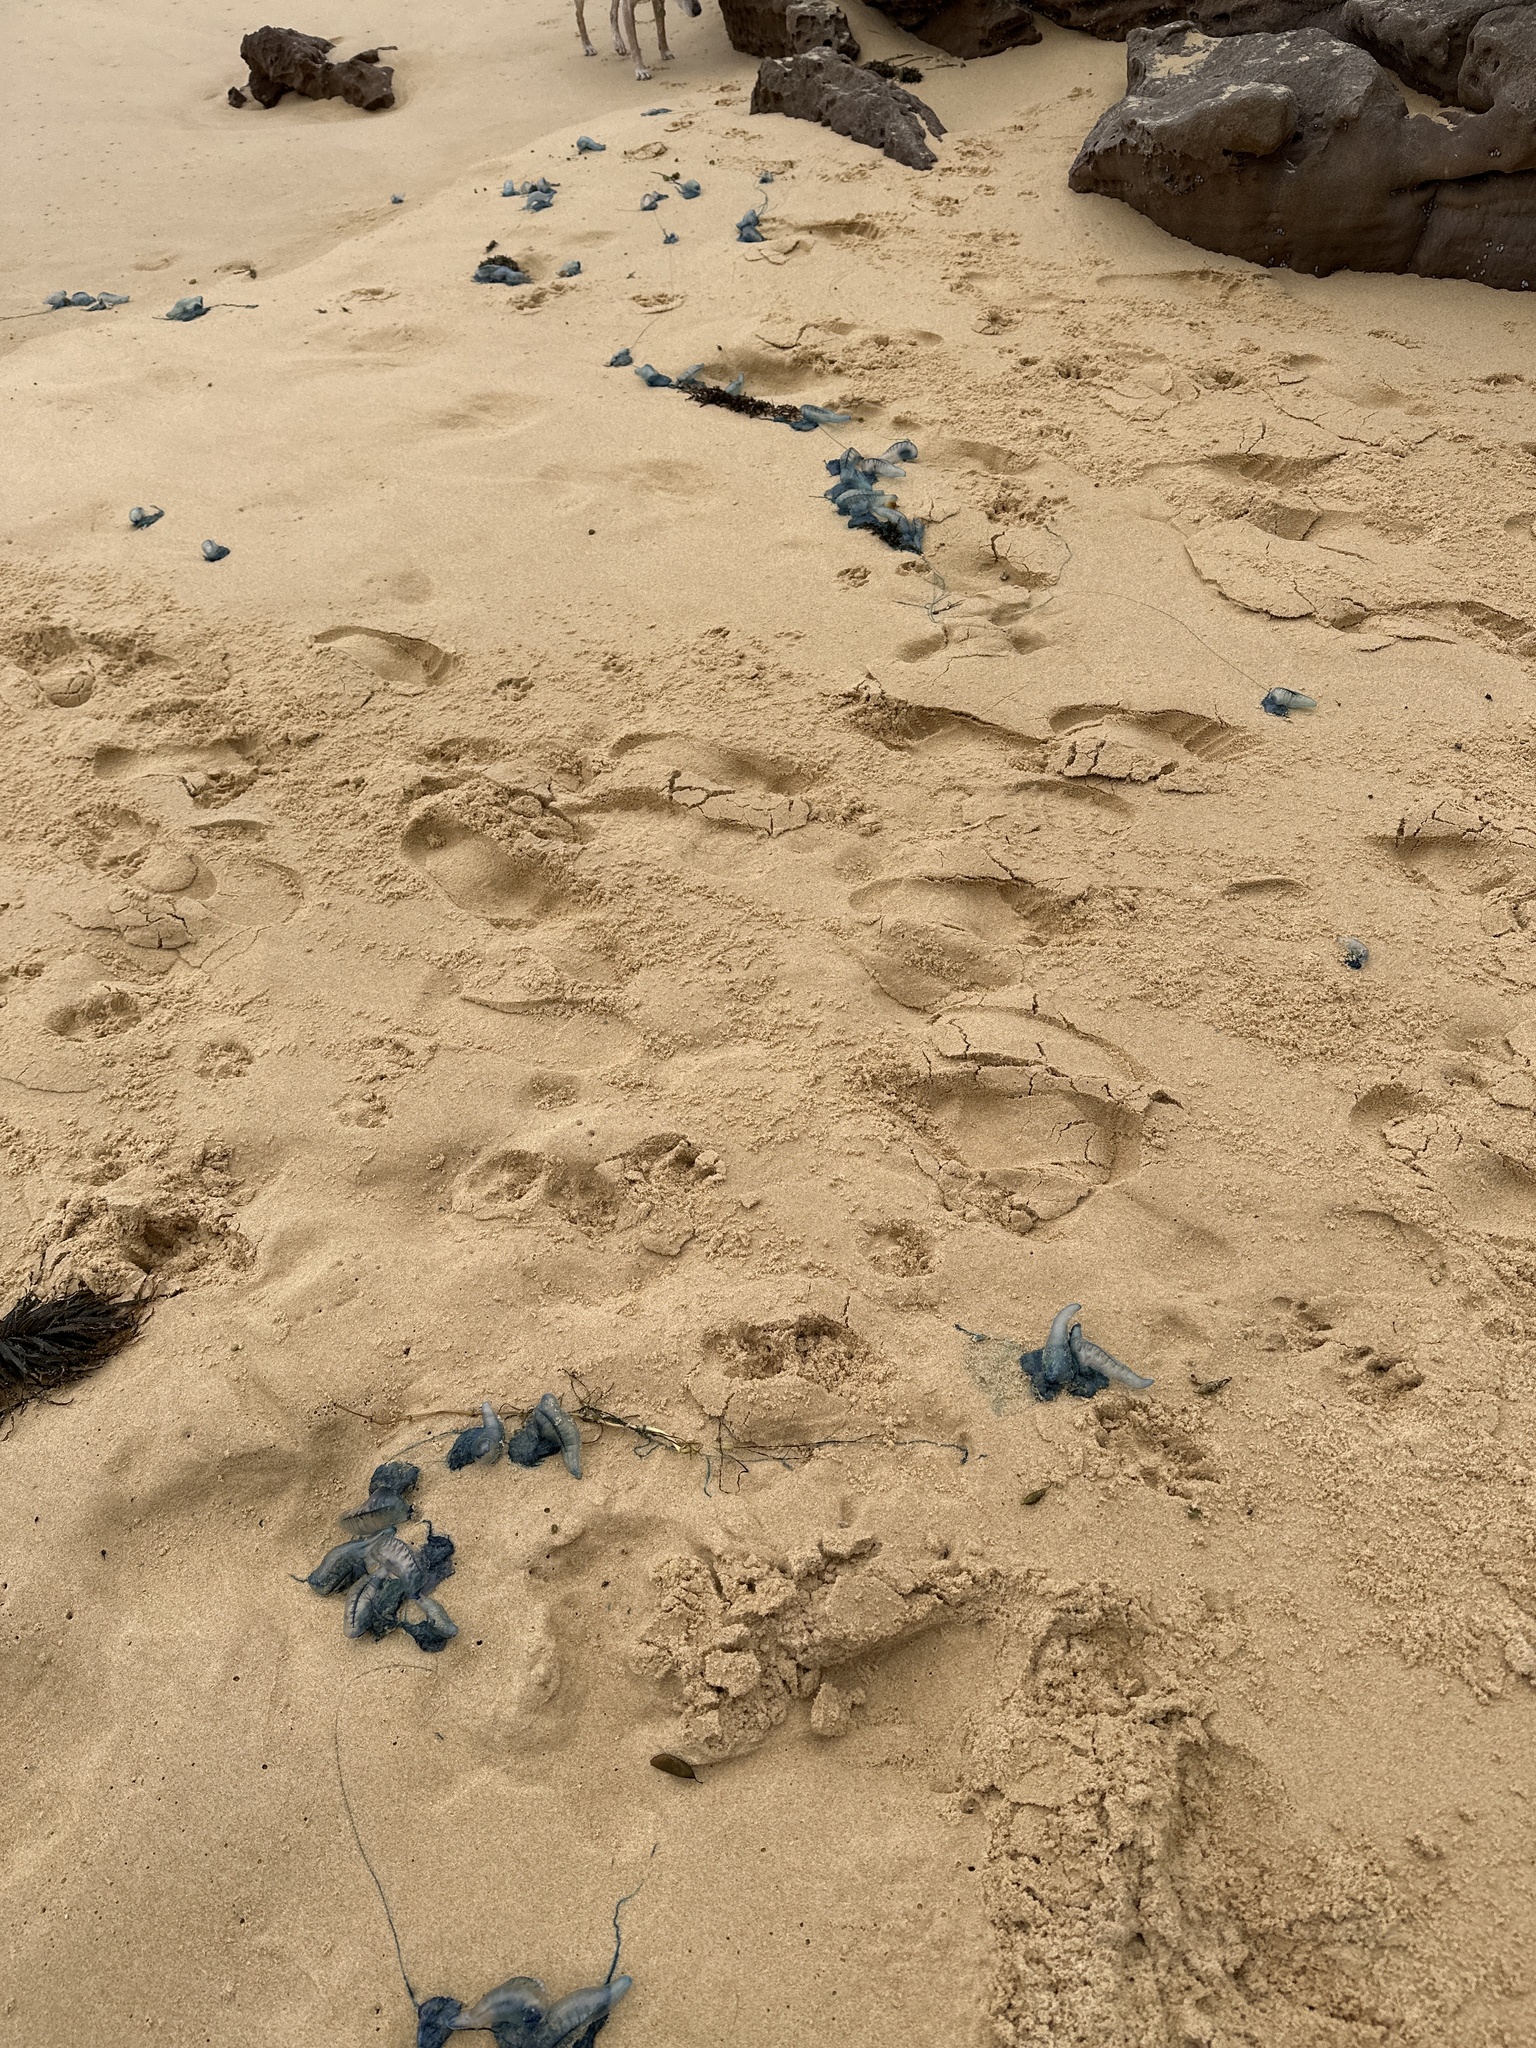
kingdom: Animalia
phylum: Cnidaria
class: Hydrozoa
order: Siphonophorae
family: Physaliidae
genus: Physalia
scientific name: Physalia physalis
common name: Portuguese man-of-war
